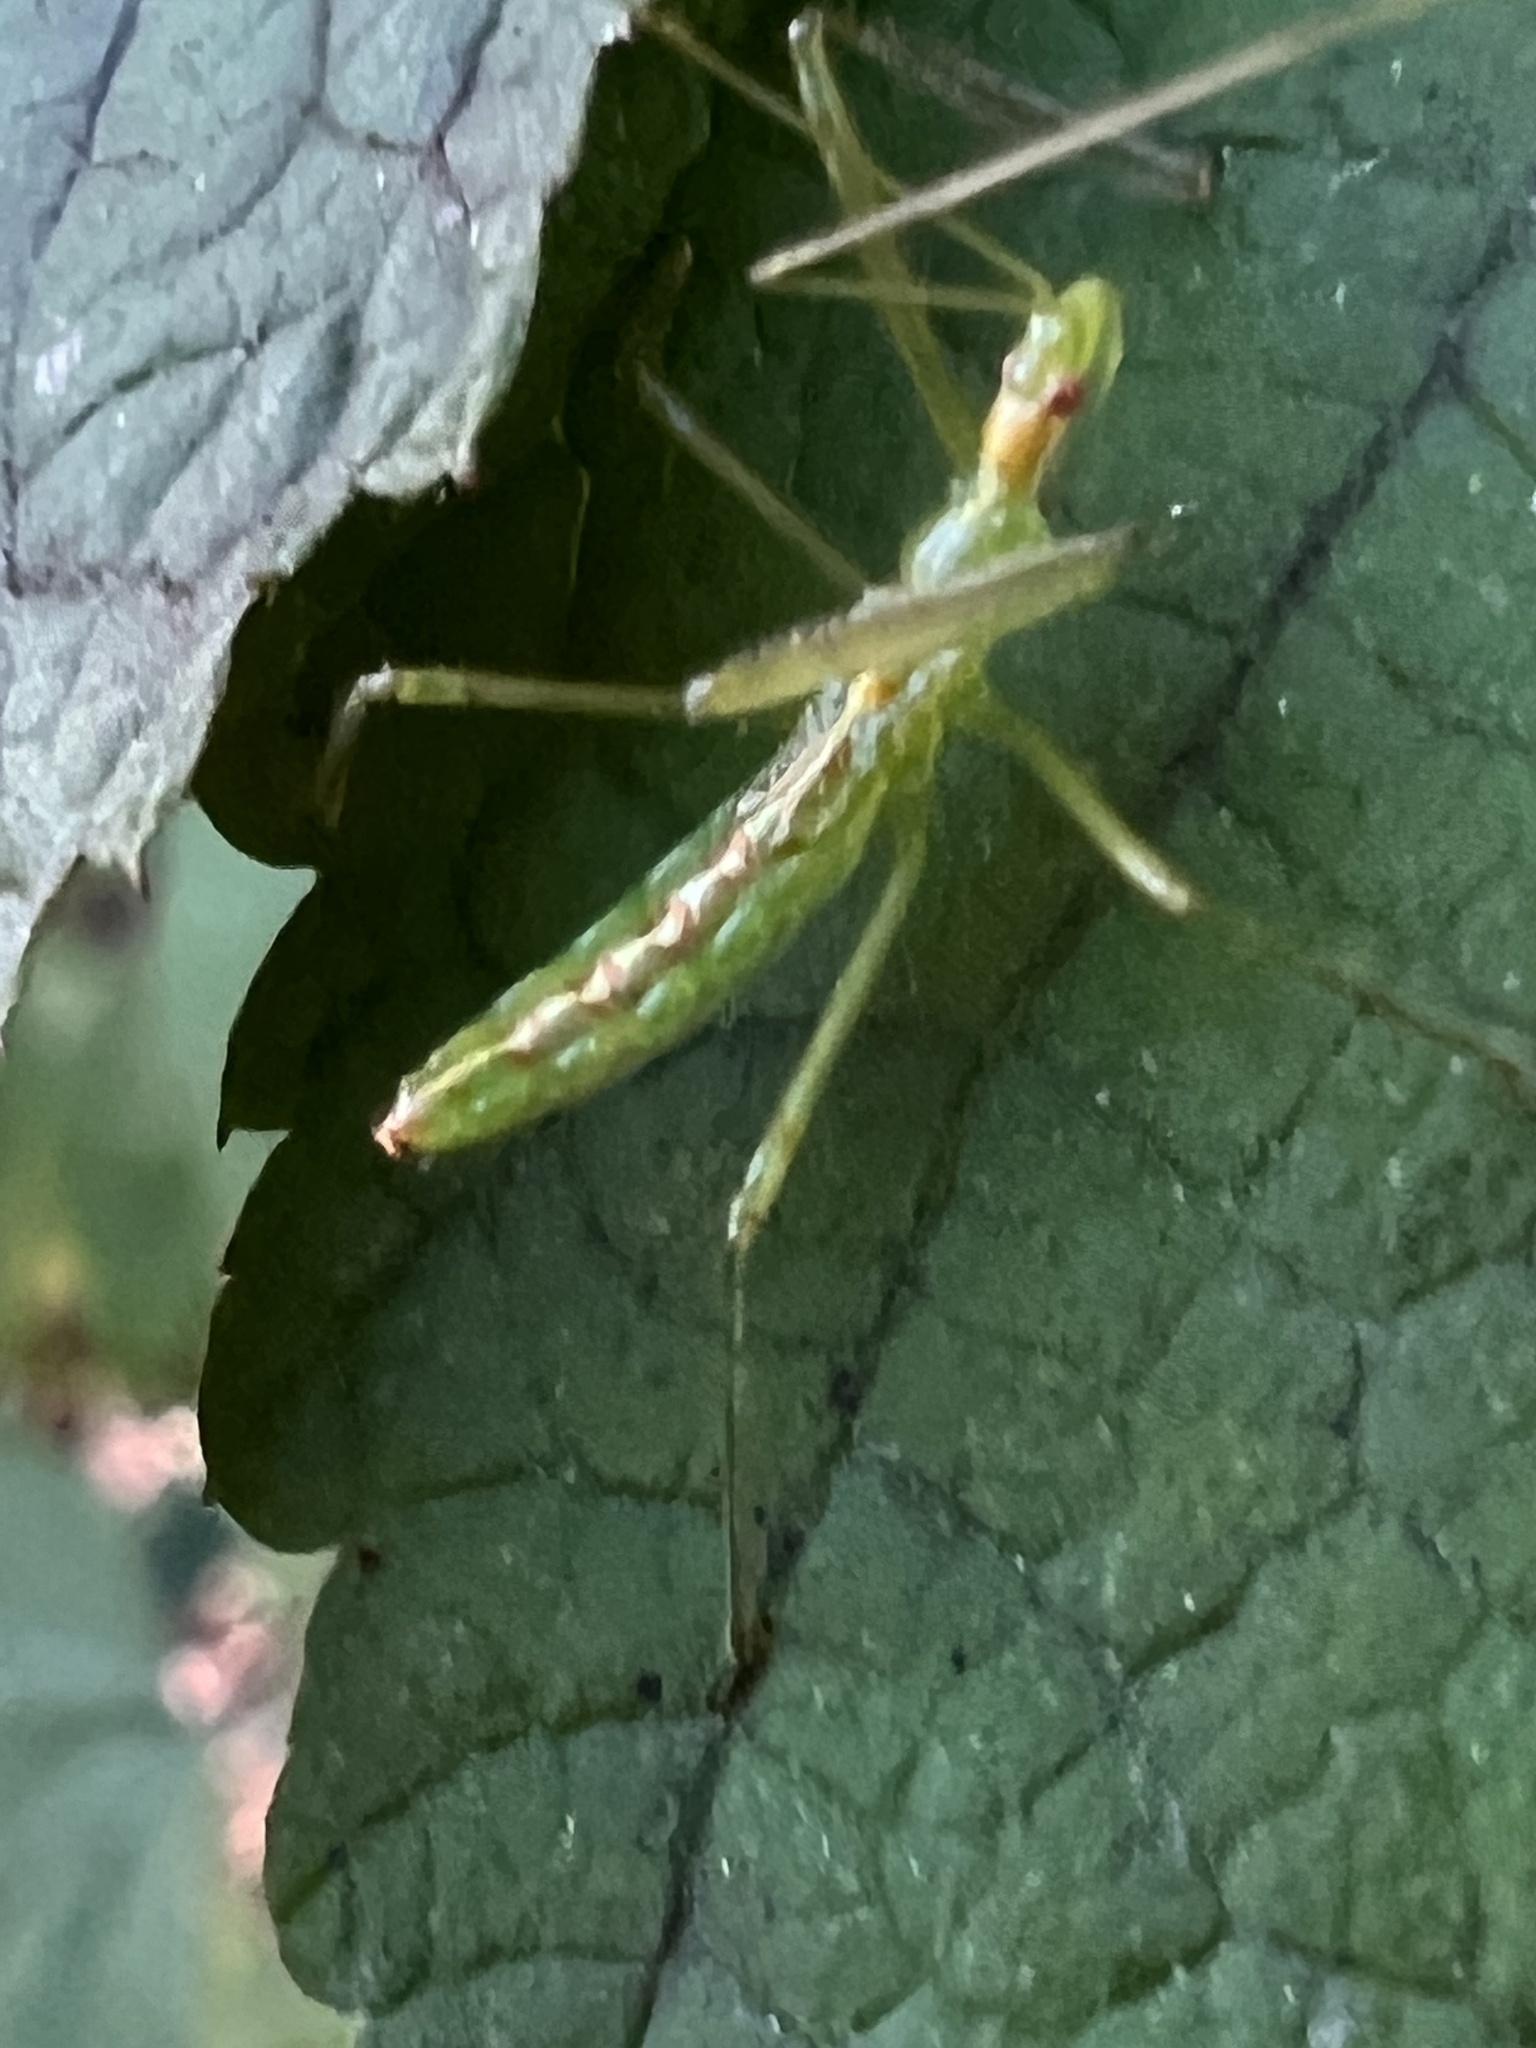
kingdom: Animalia
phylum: Arthropoda
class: Insecta
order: Hemiptera
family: Reduviidae
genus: Zelus
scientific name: Zelus luridus
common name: Pale green assassin bug
